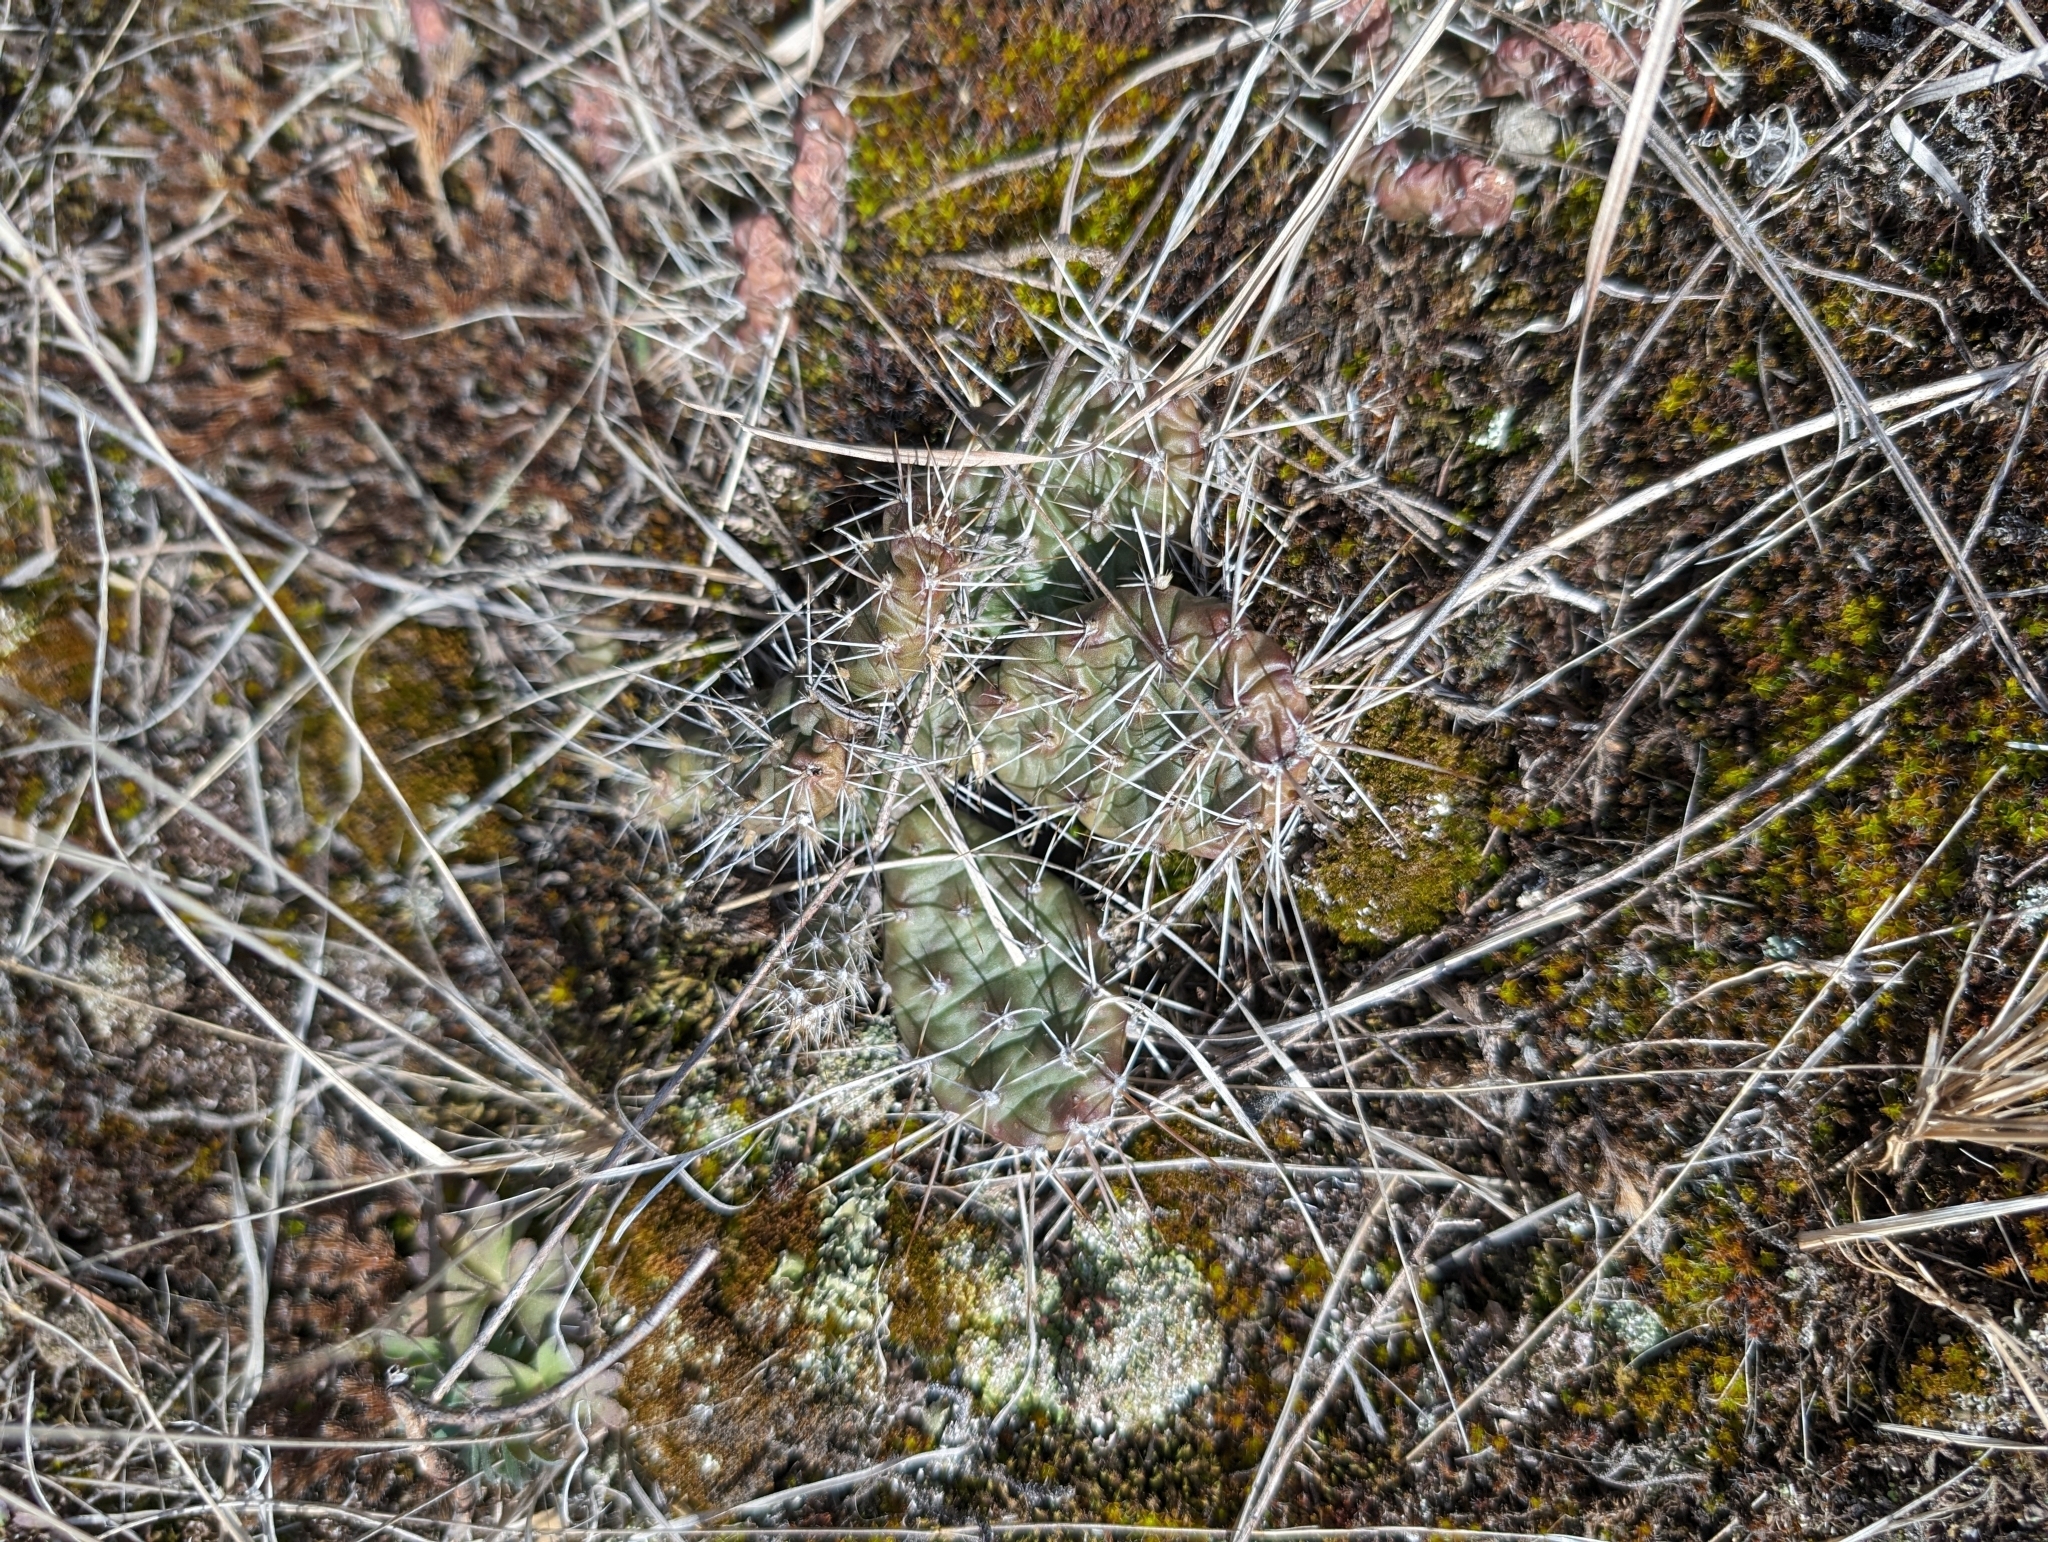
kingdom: Plantae
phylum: Tracheophyta
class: Magnoliopsida
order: Caryophyllales
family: Cactaceae
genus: Opuntia
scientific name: Opuntia fragilis
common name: Brittle cactus
